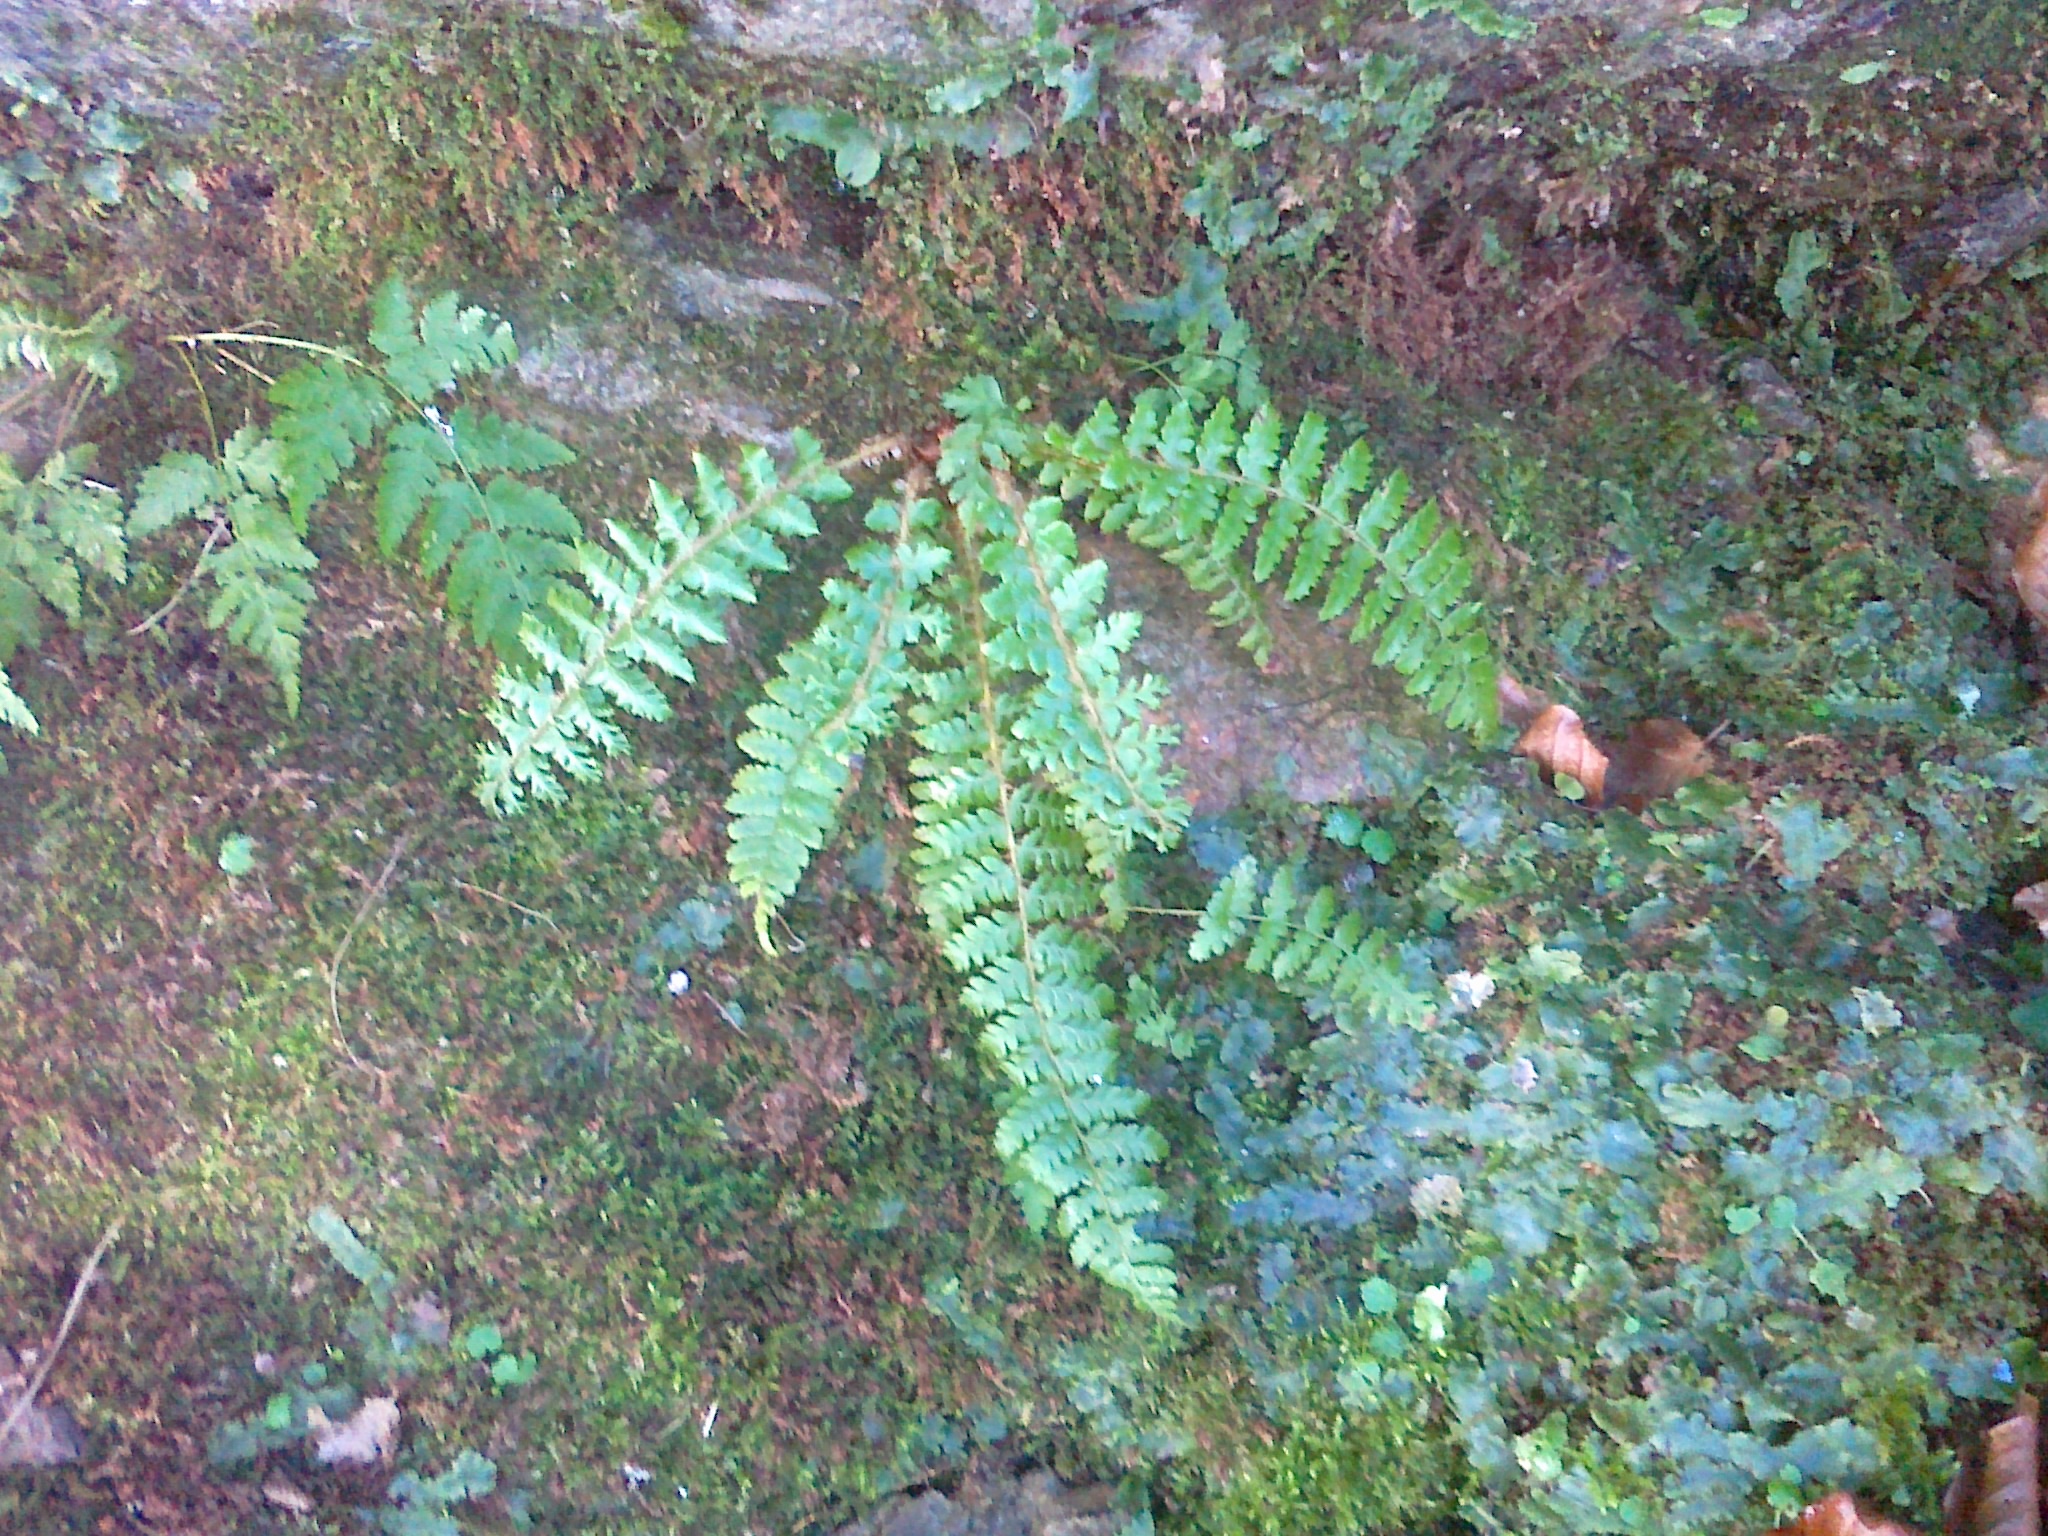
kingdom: Plantae
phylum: Tracheophyta
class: Polypodiopsida
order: Polypodiales
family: Dryopteridaceae
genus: Polystichum
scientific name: Polystichum braunii
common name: Braun's holly fern
